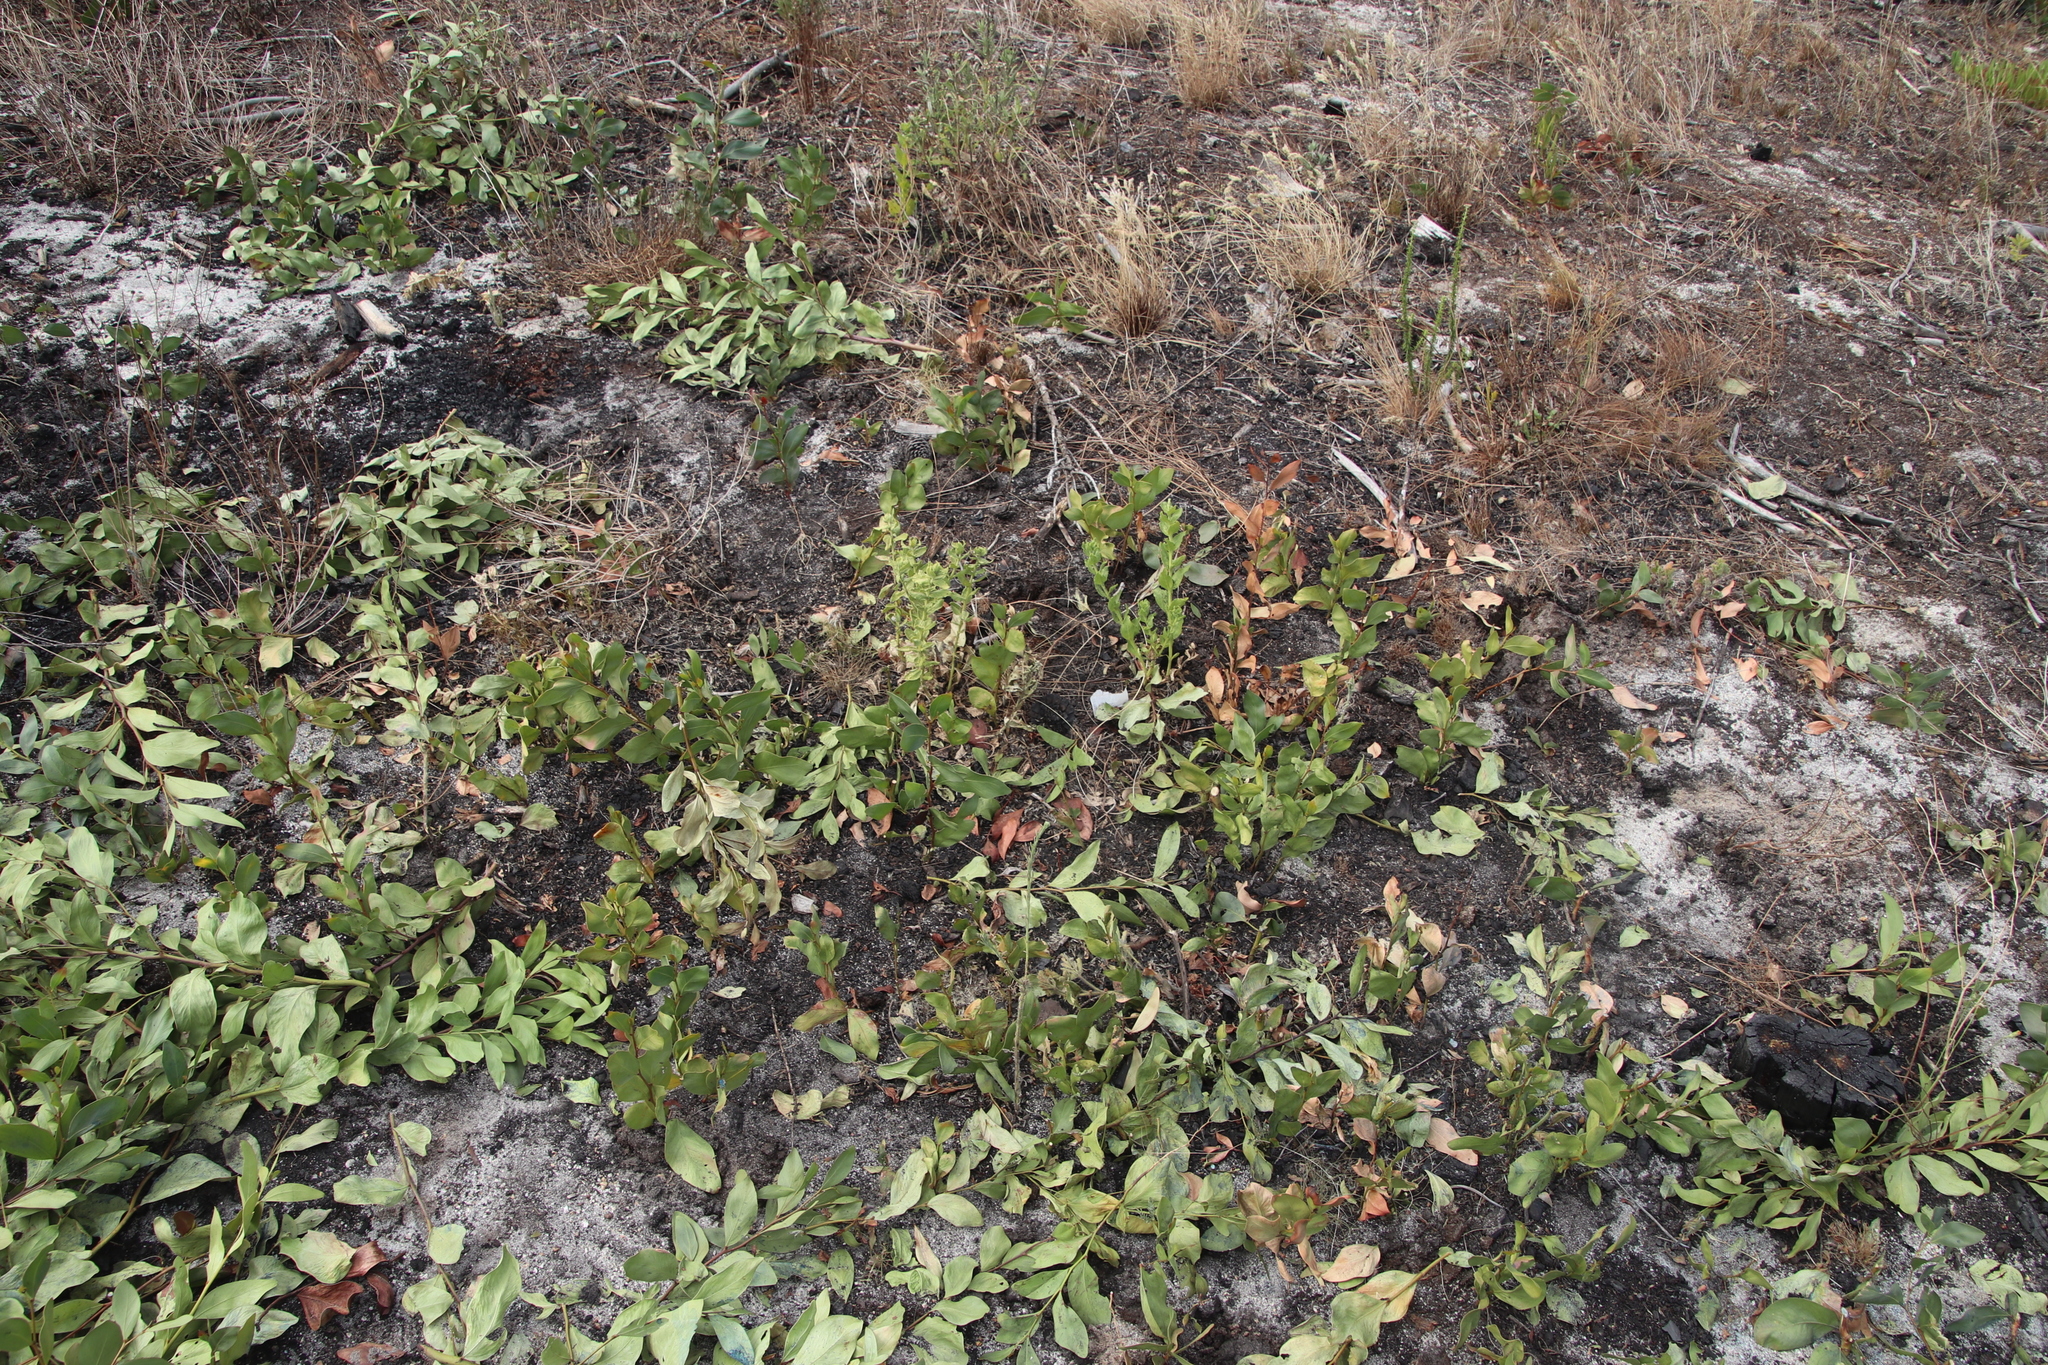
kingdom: Plantae
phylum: Tracheophyta
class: Magnoliopsida
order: Fabales
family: Fabaceae
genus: Acacia
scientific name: Acacia pycnantha
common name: Golden wattle
